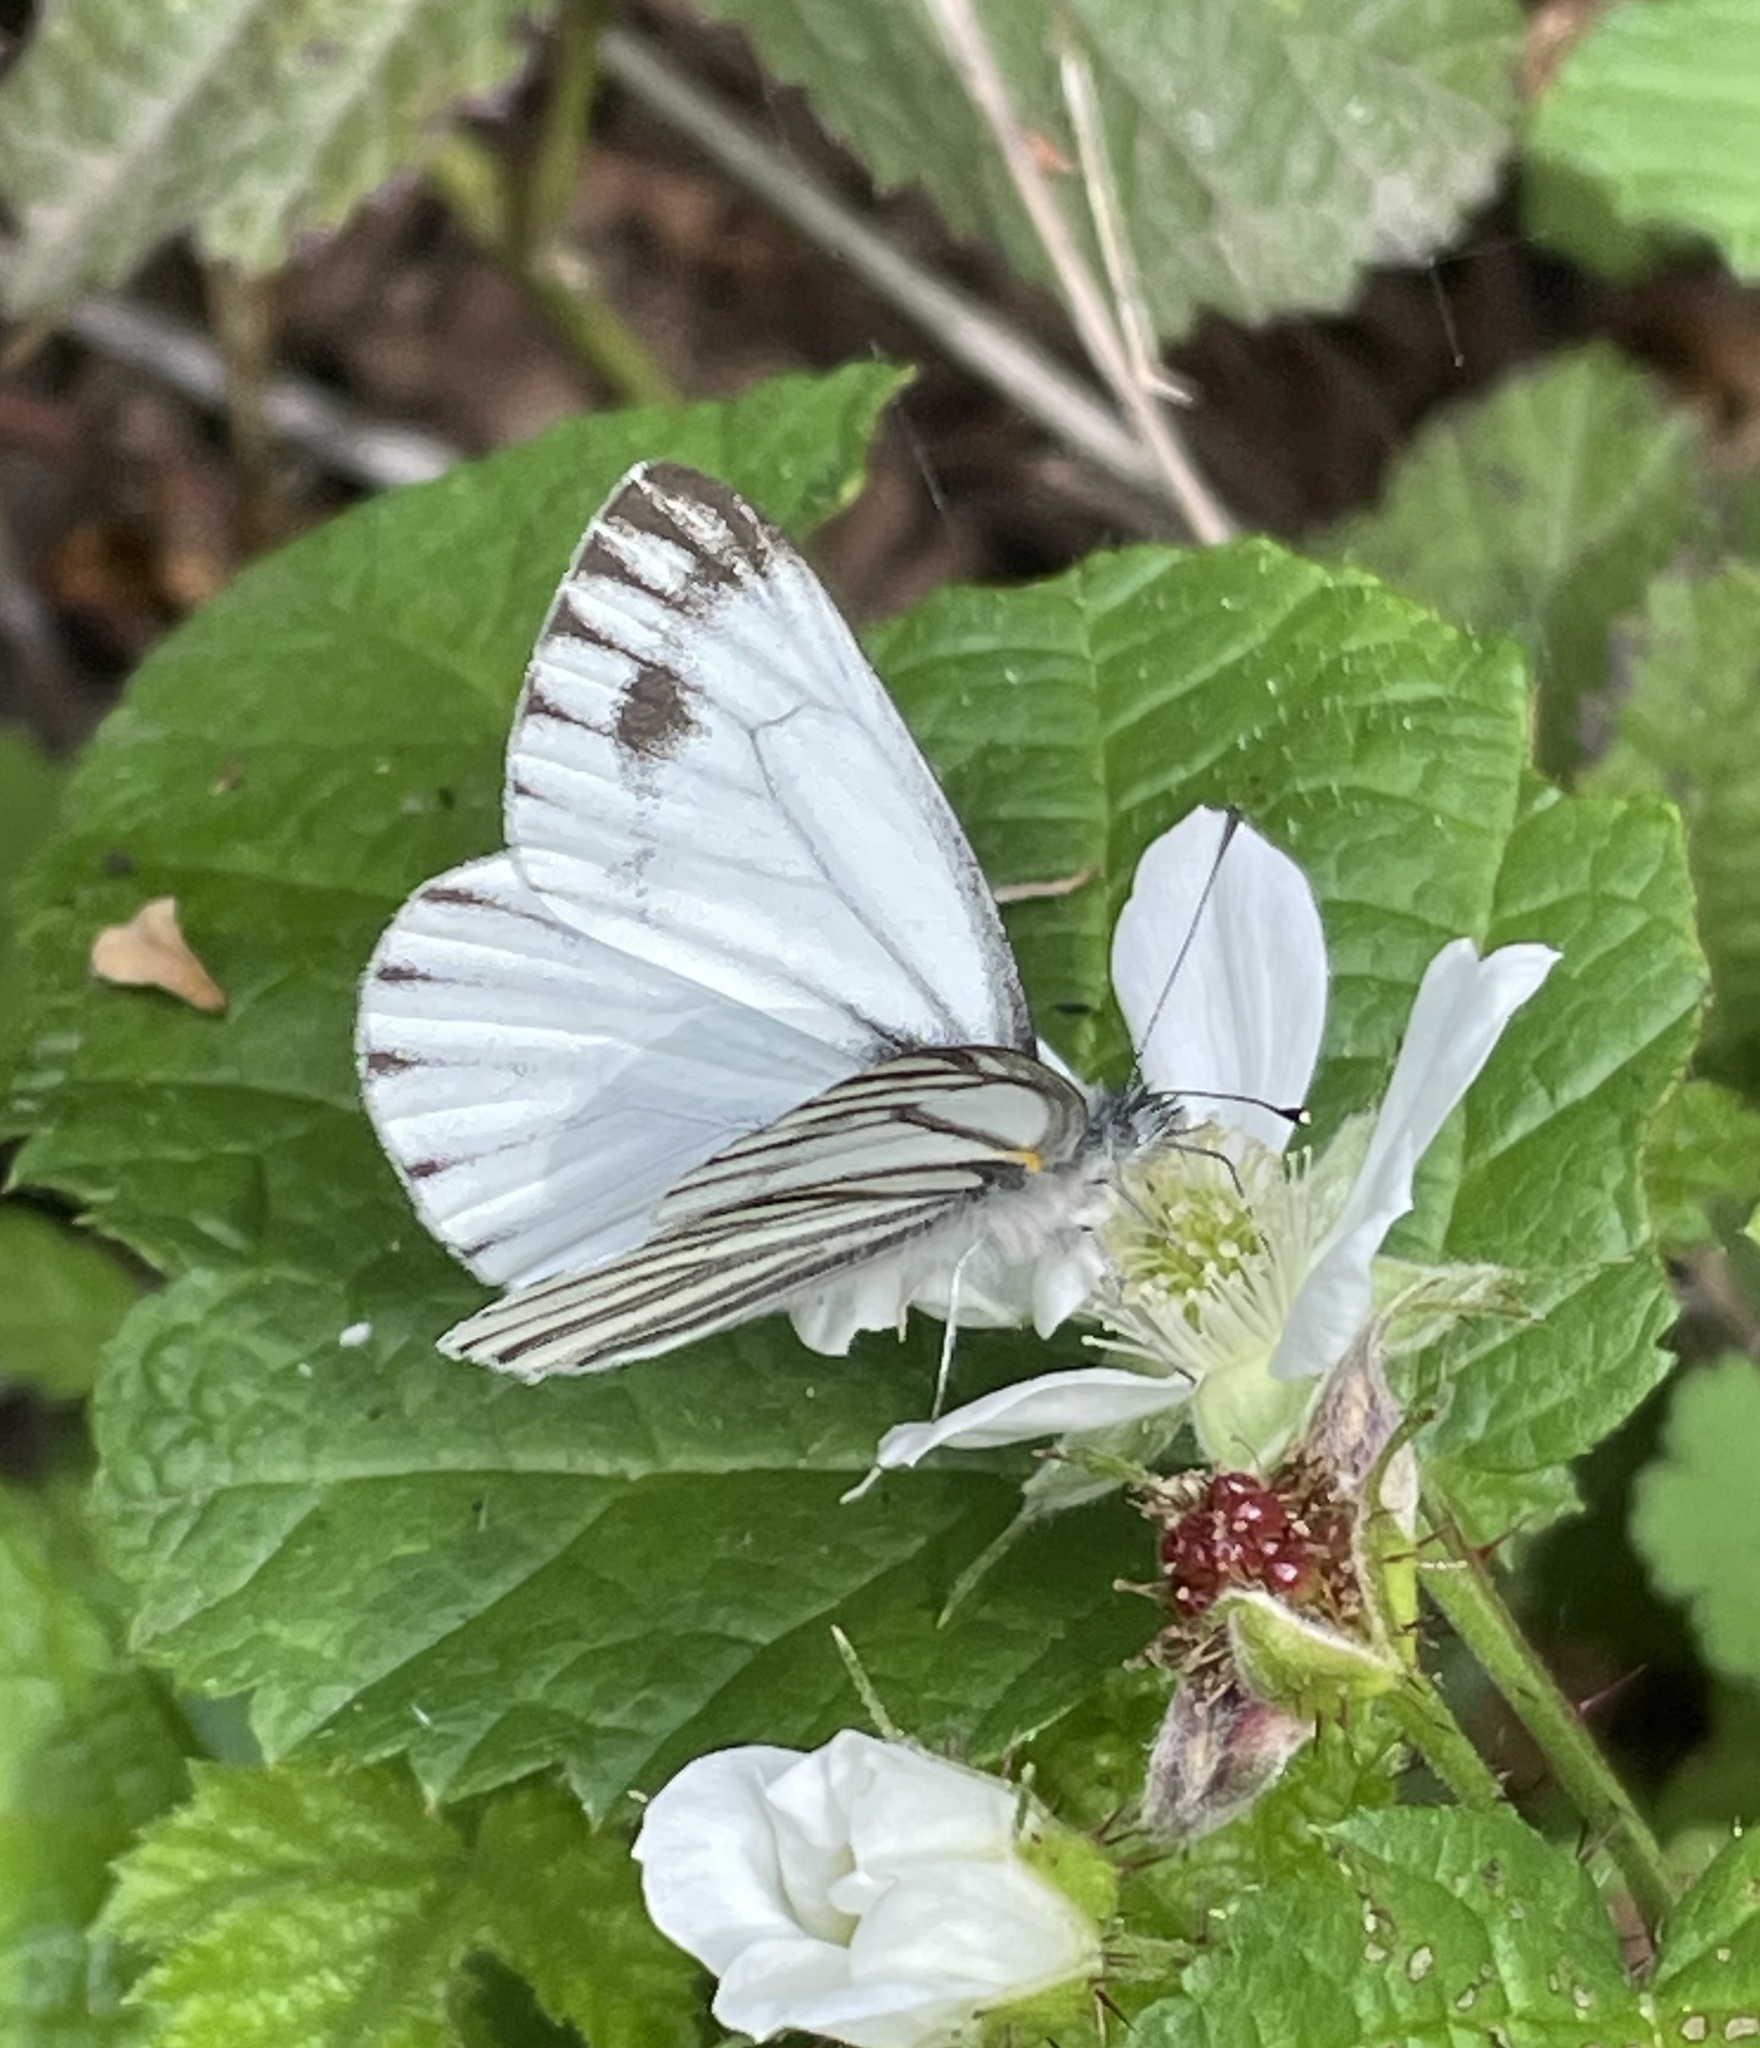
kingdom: Animalia
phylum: Arthropoda
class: Insecta
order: Lepidoptera
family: Pieridae
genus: Pieris
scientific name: Pieris marginalis
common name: Margined white
